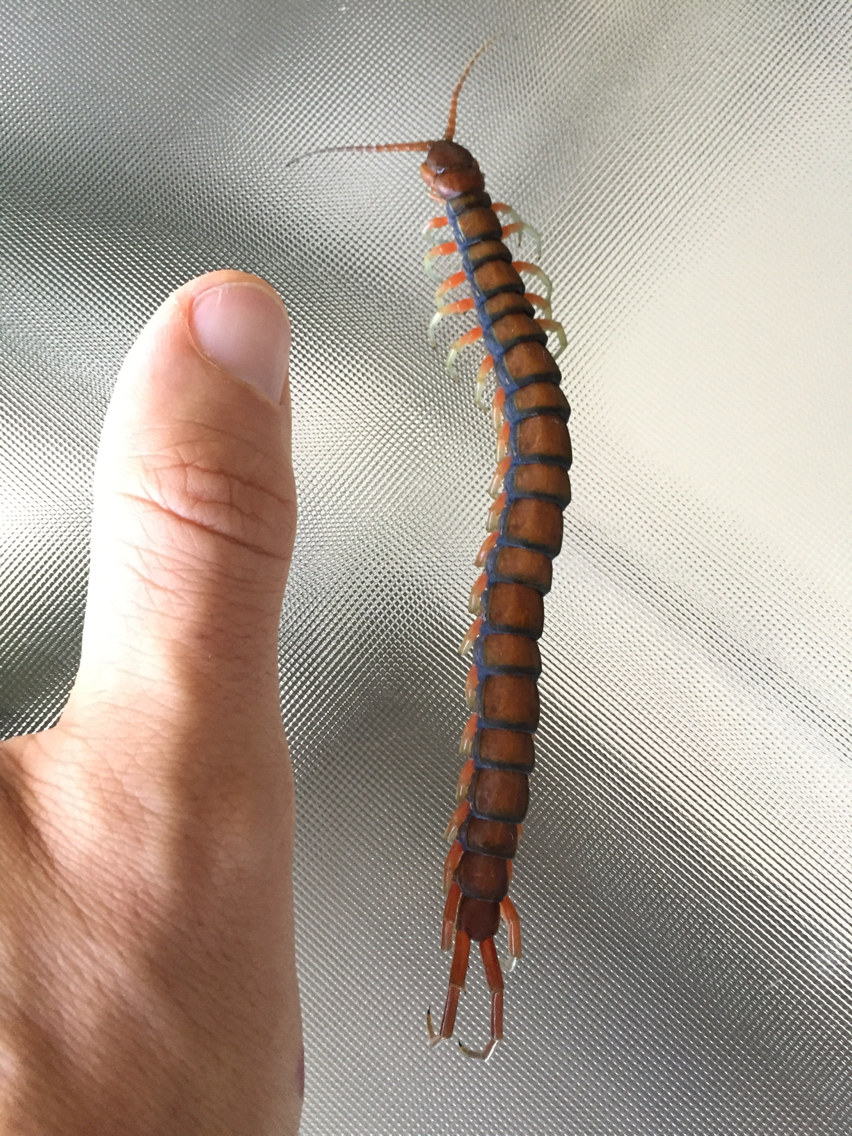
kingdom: Animalia
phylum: Arthropoda
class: Chilopoda
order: Scolopendromorpha
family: Scolopendridae
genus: Scolopendra
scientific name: Scolopendra subspinipes
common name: Centipede
